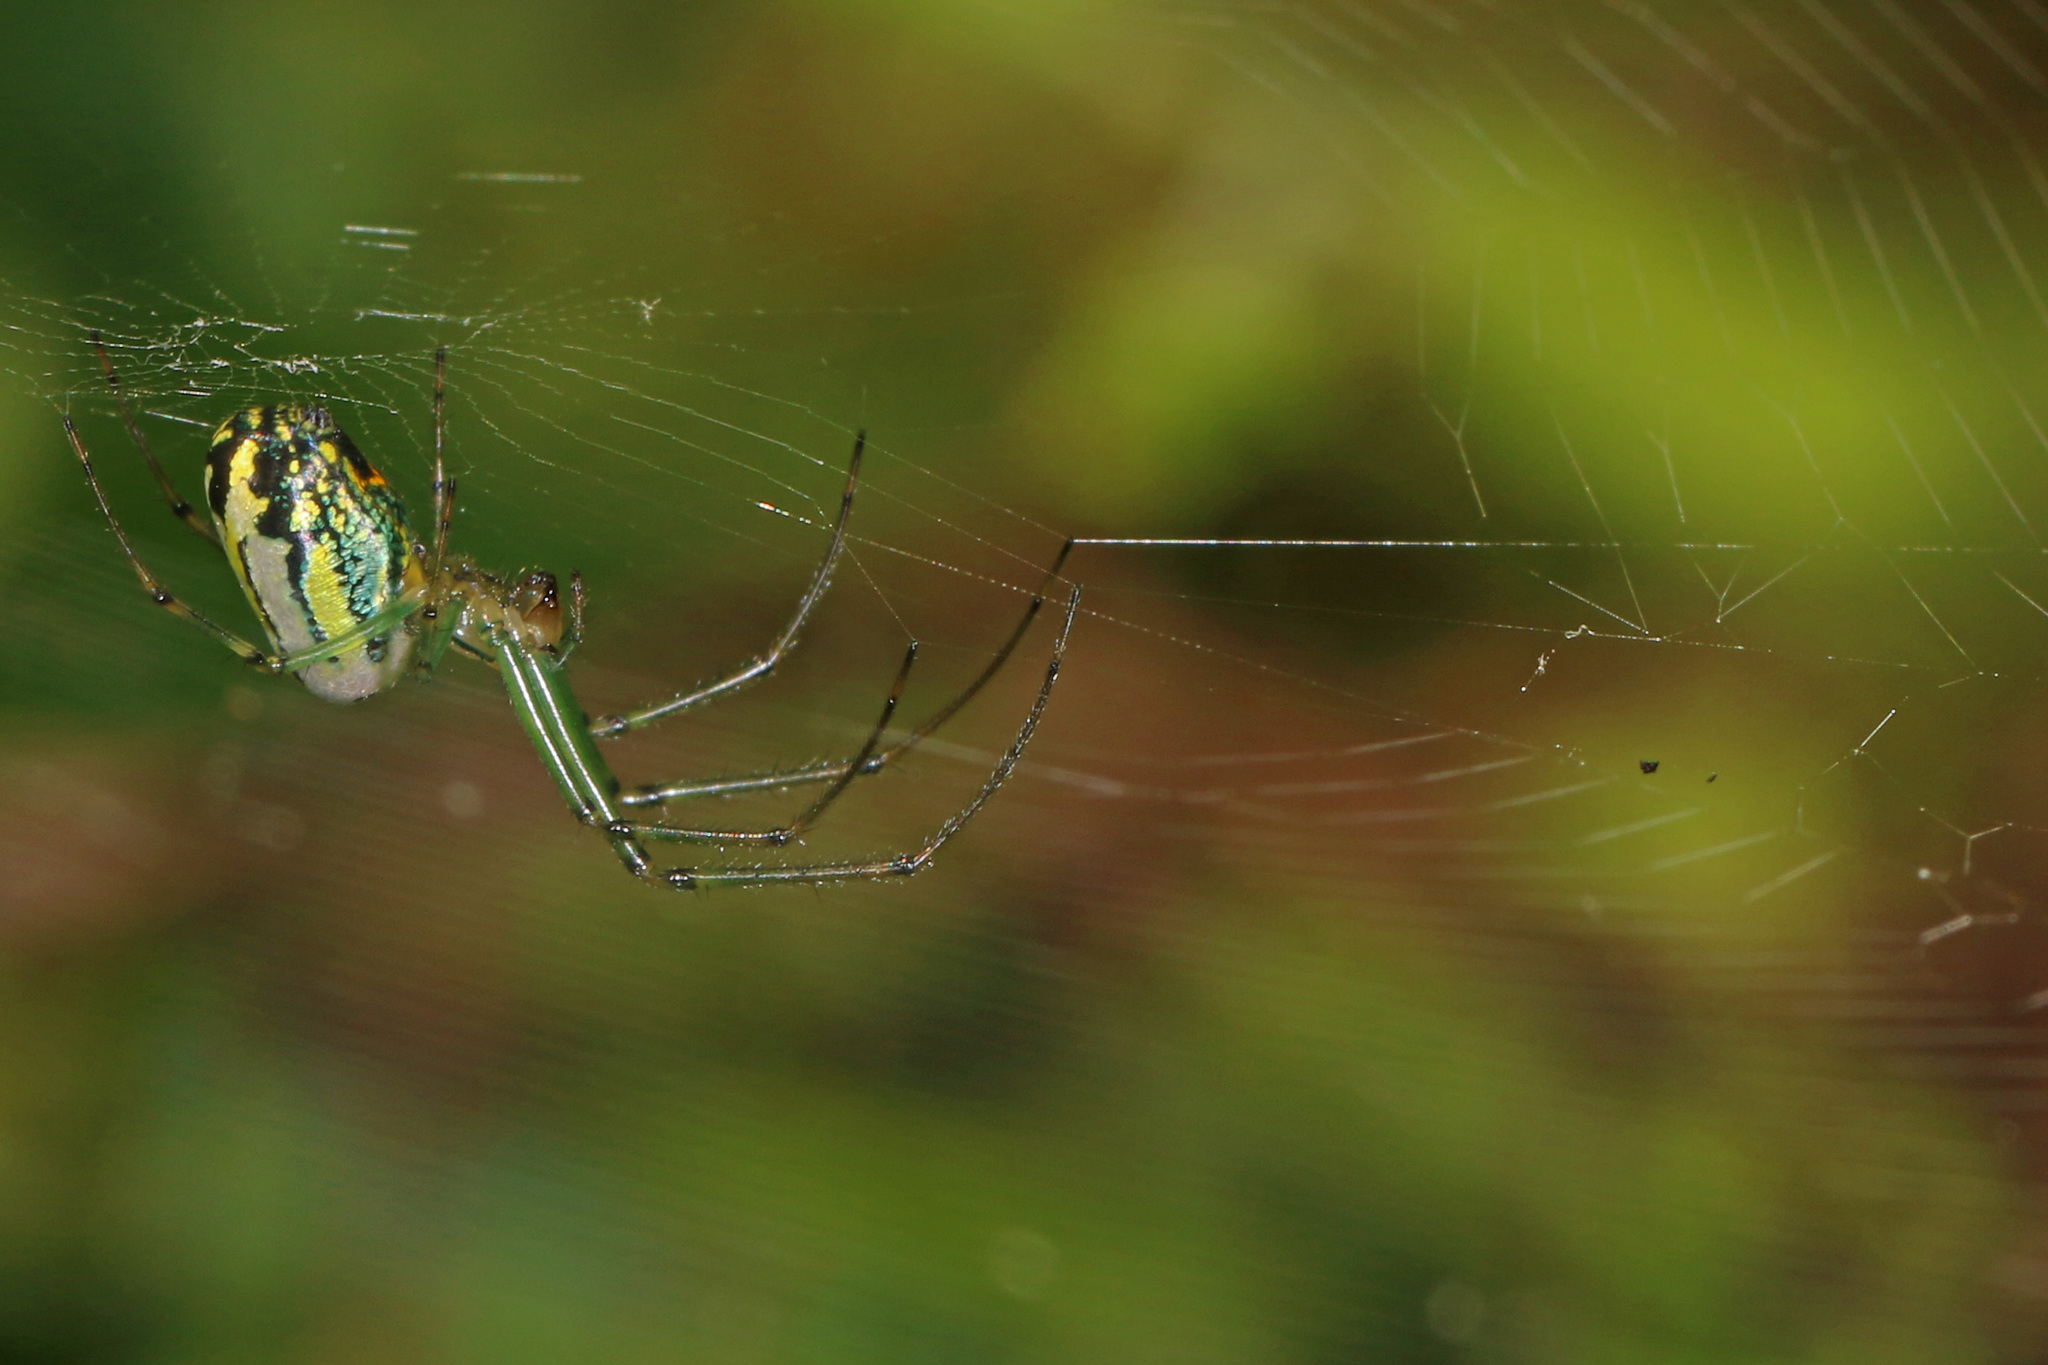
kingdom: Animalia
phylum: Arthropoda
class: Arachnida
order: Araneae
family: Tetragnathidae
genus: Leucauge
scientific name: Leucauge venusta
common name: Longjawed orb weavers
